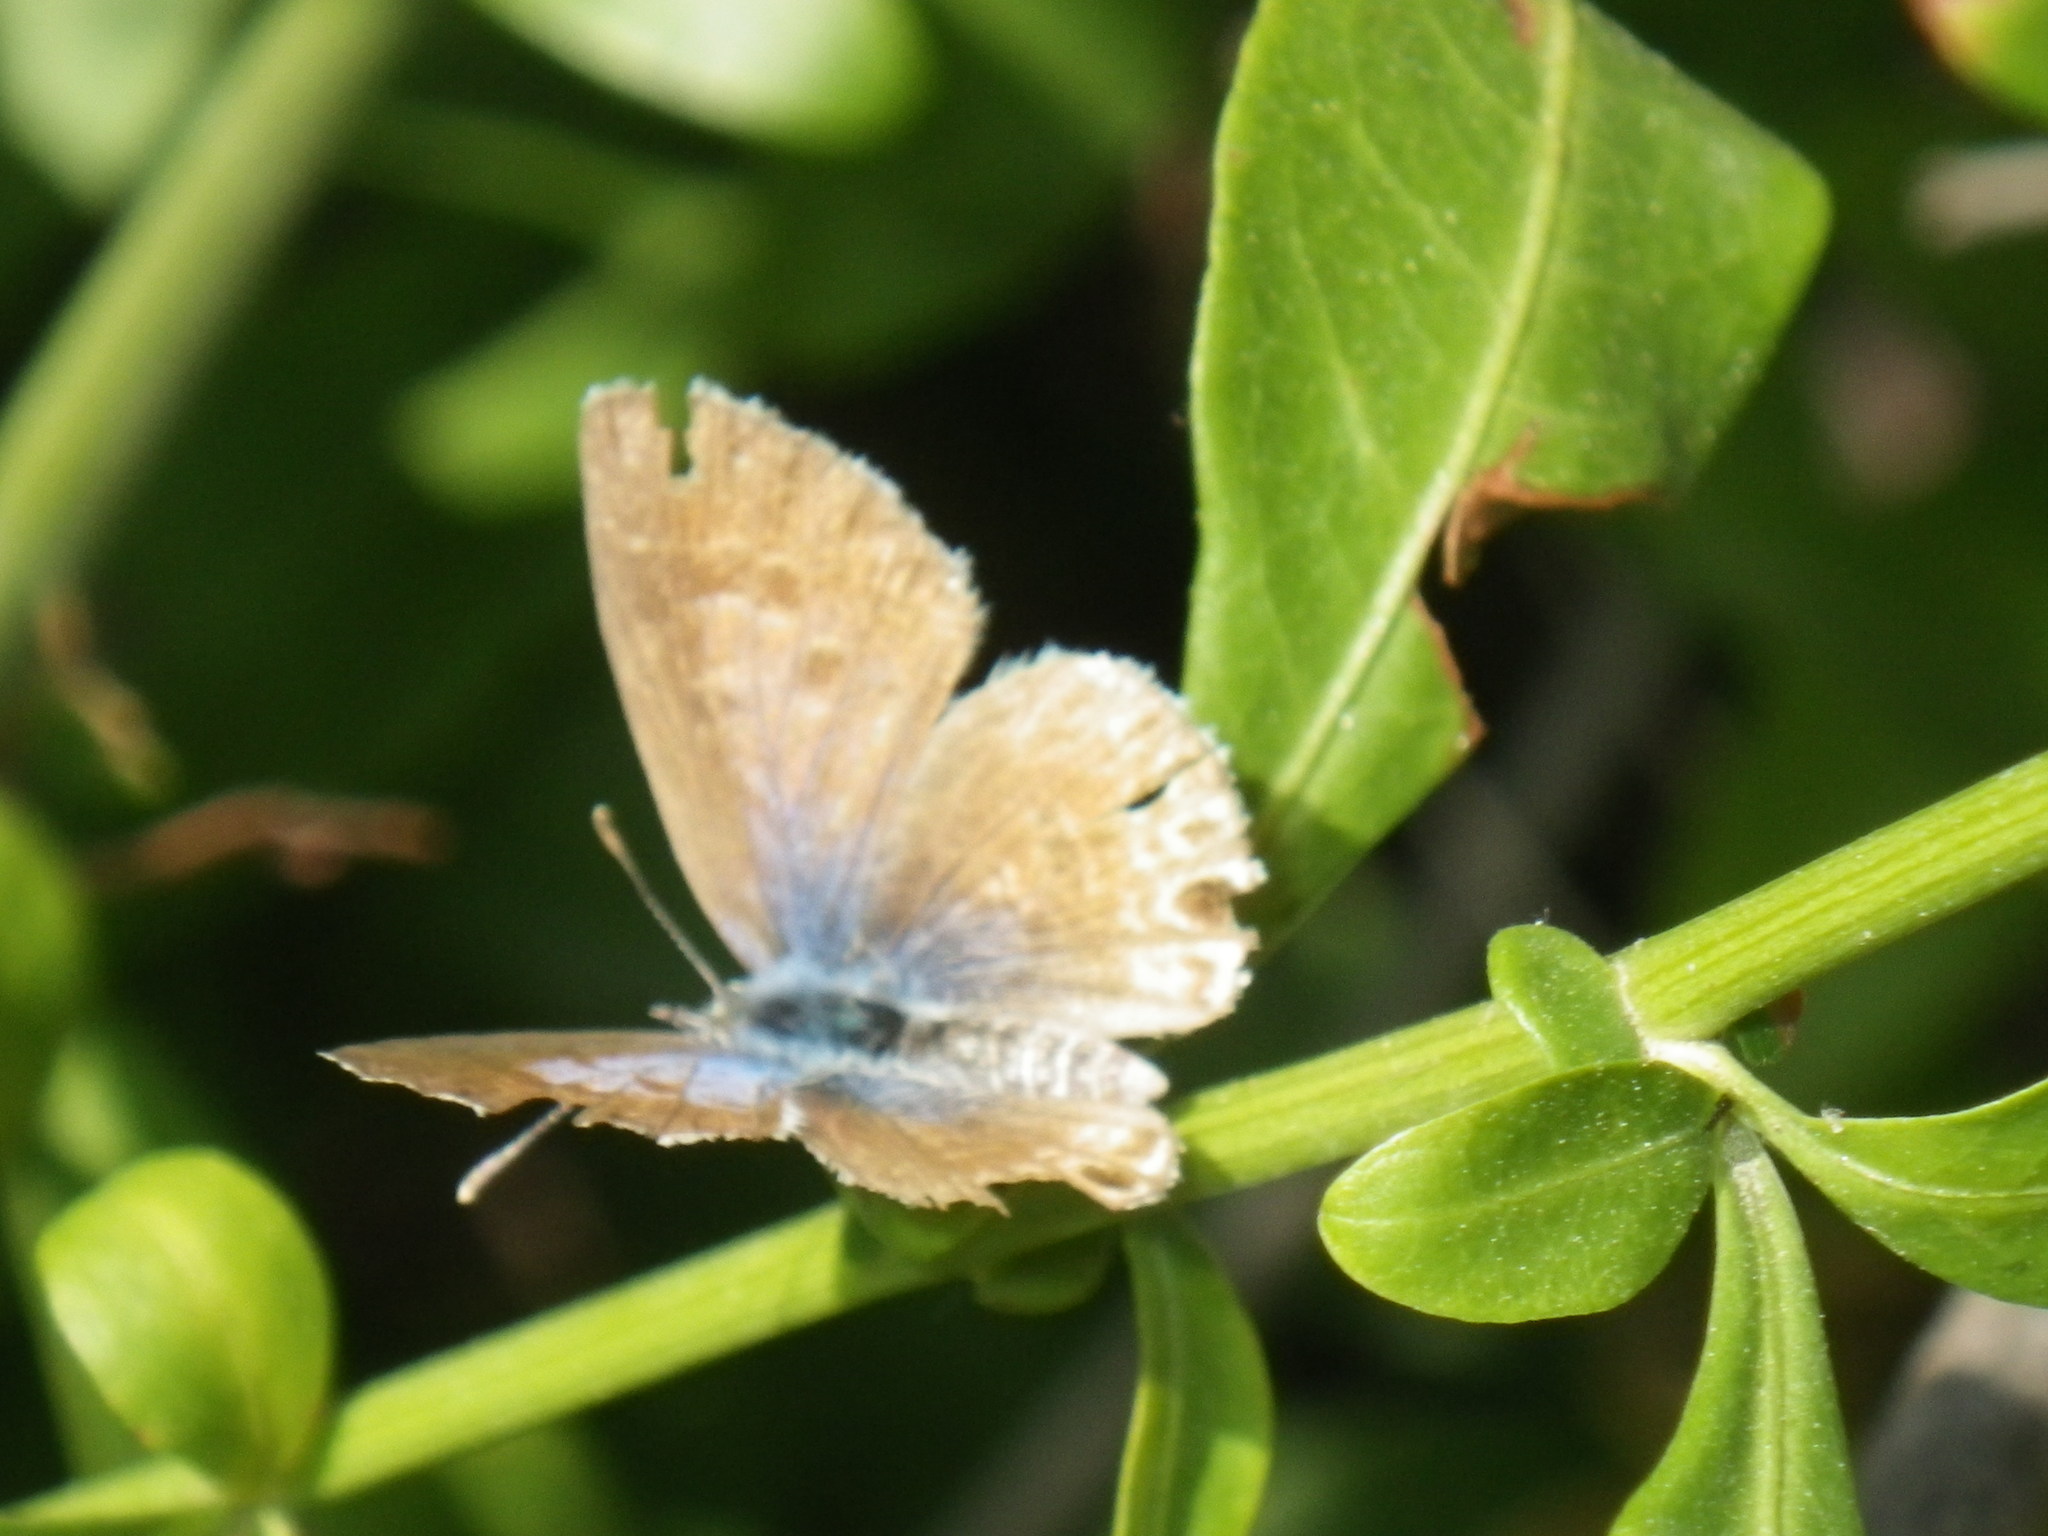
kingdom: Animalia
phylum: Arthropoda
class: Insecta
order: Lepidoptera
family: Lycaenidae
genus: Leptotes
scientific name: Leptotes marina
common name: Marine blue
